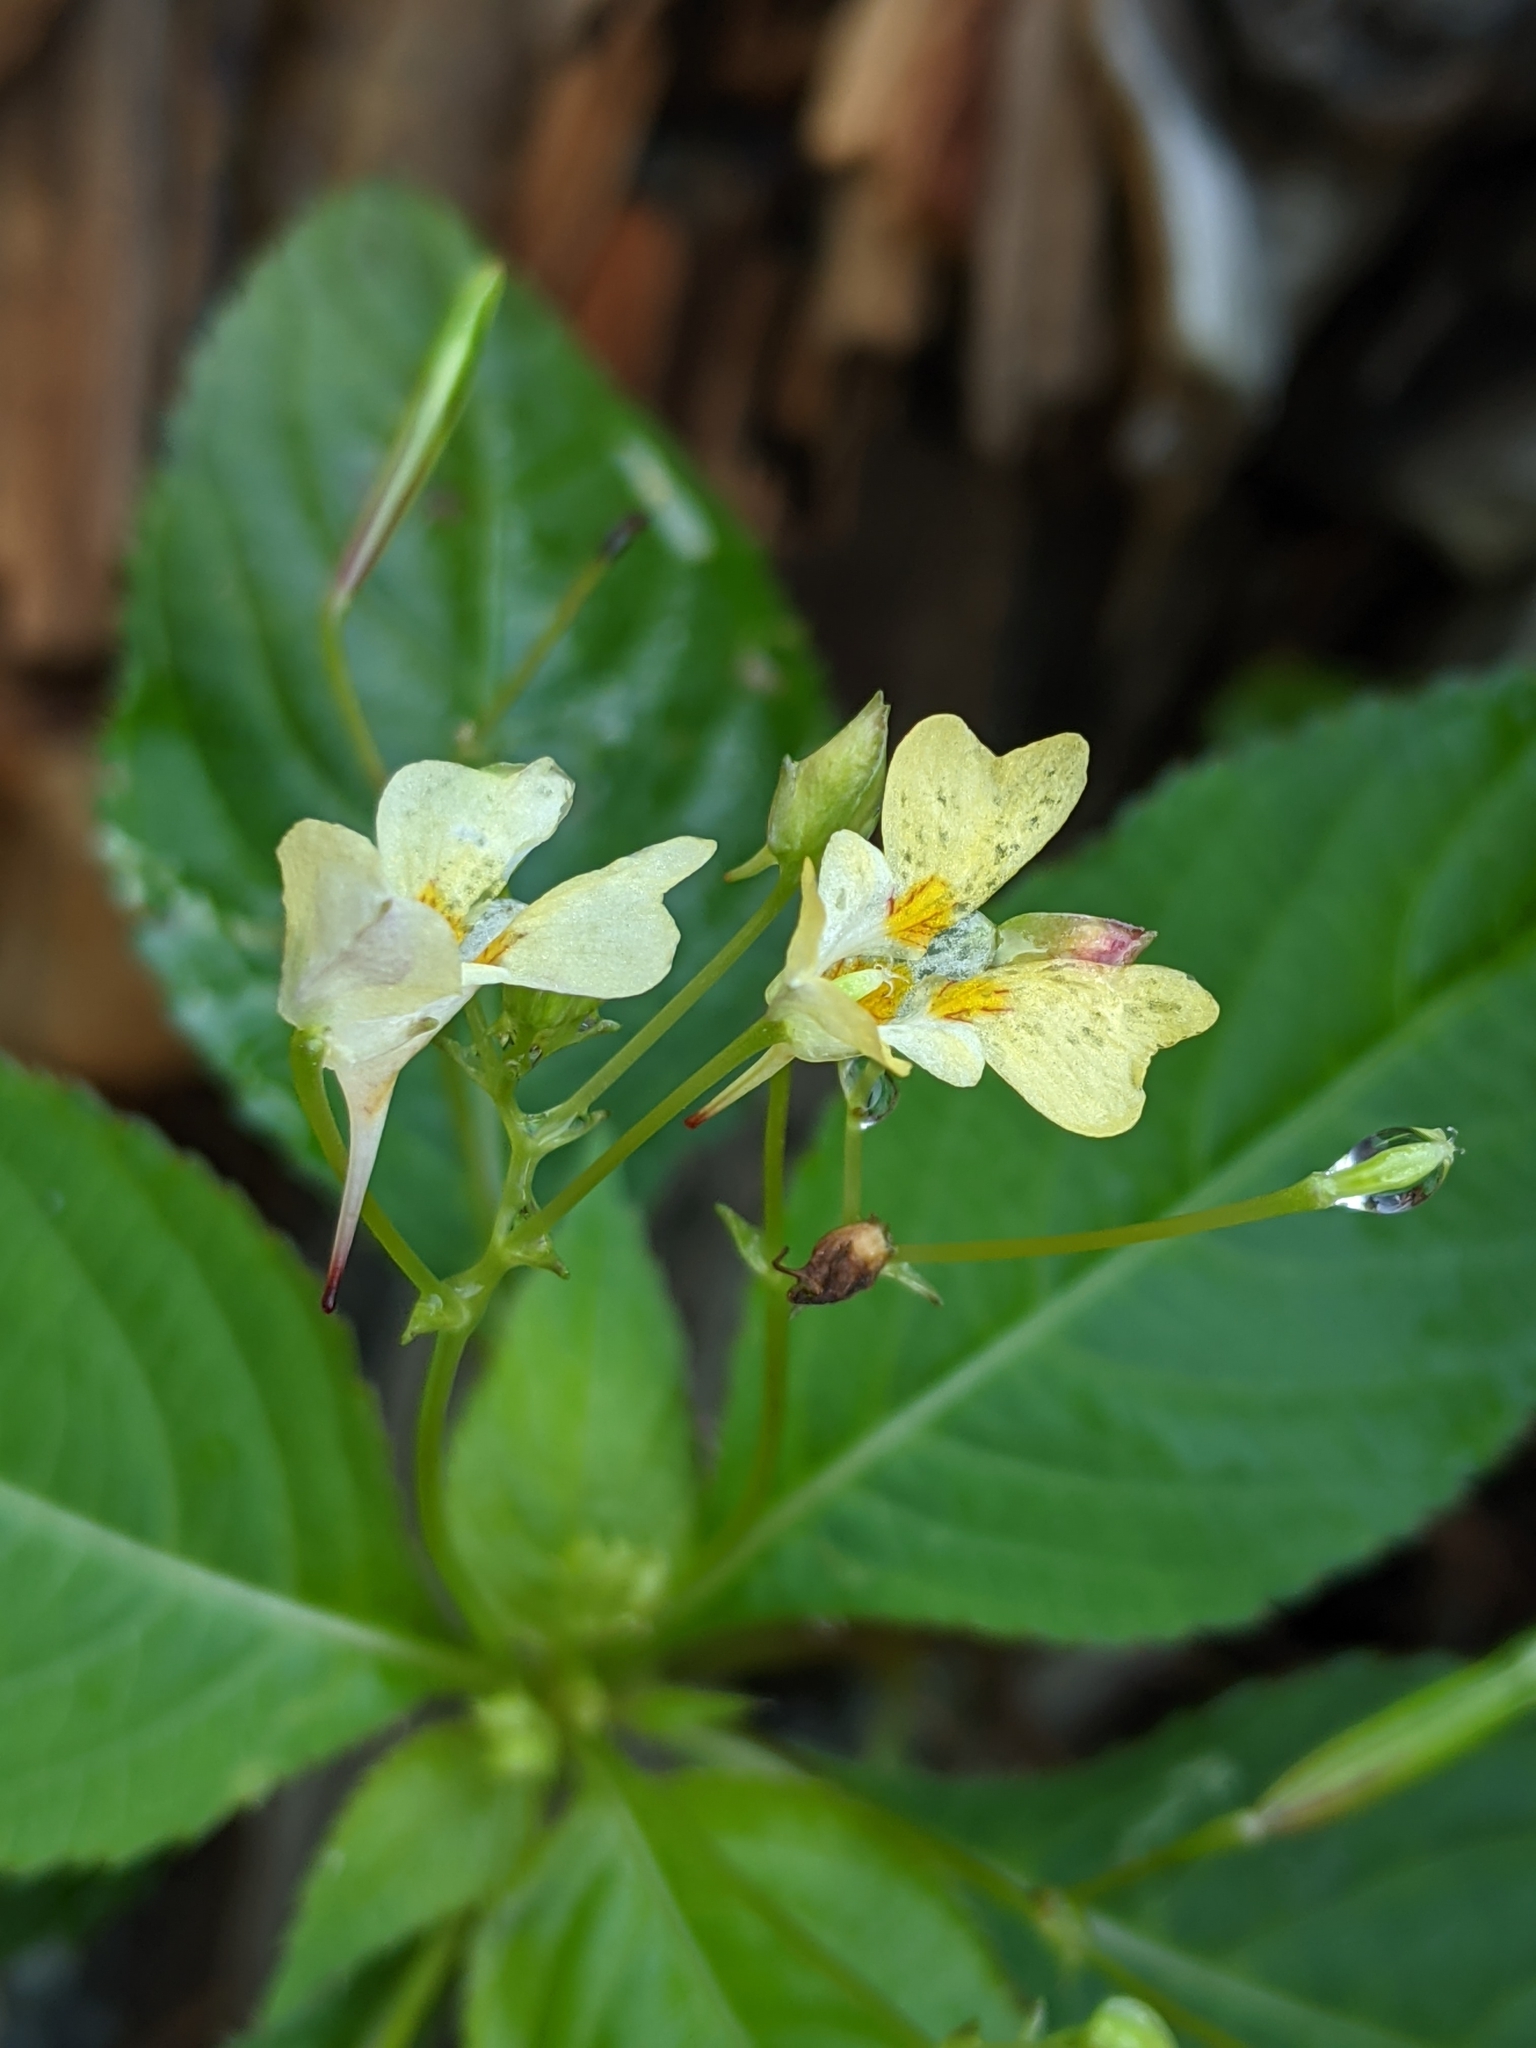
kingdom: Plantae
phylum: Tracheophyta
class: Magnoliopsida
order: Ericales
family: Balsaminaceae
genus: Impatiens
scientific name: Impatiens parviflora
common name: Small balsam
